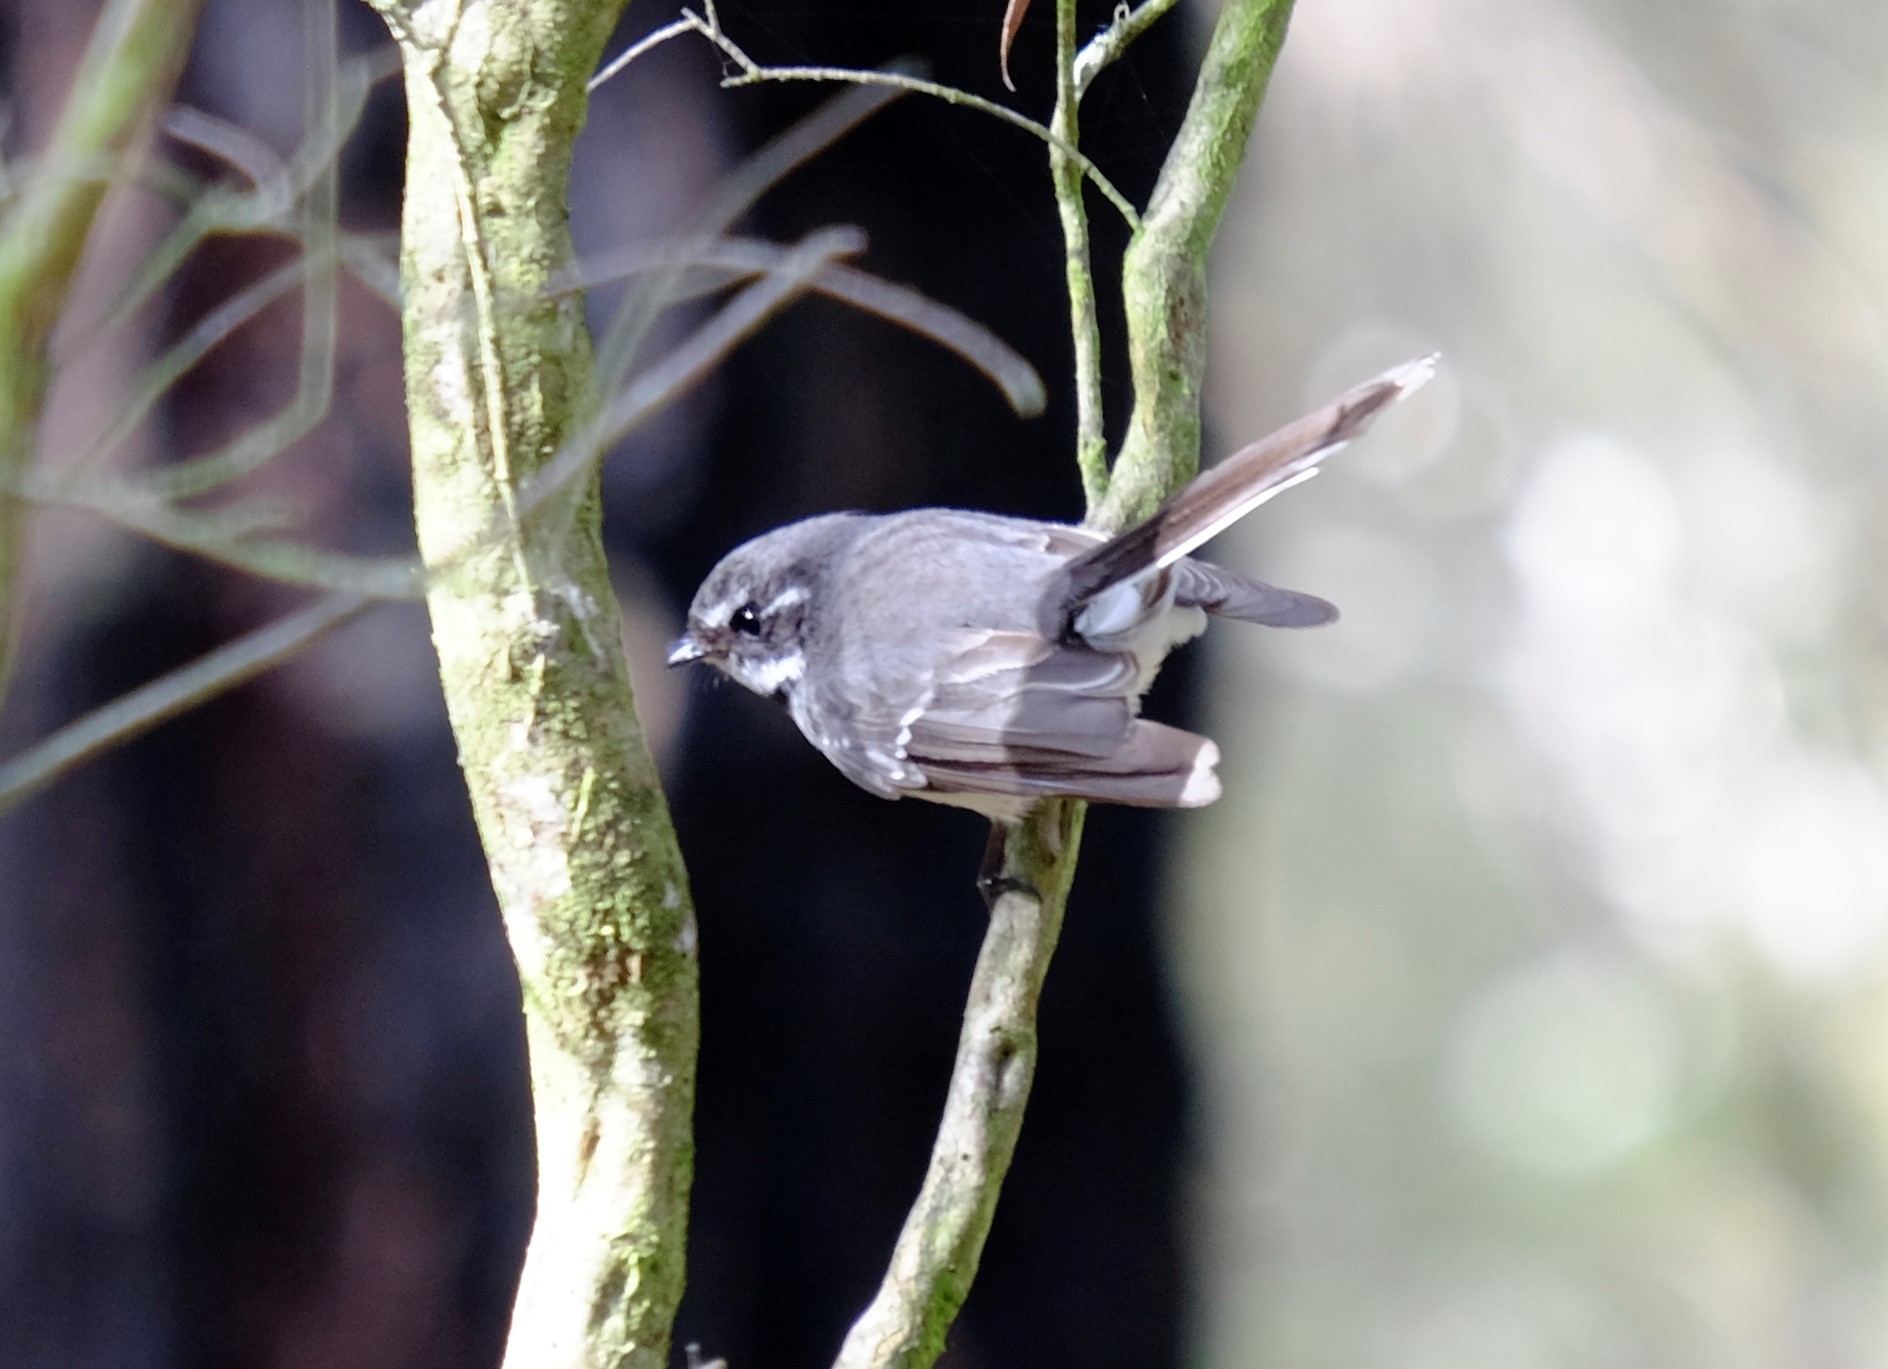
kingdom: Animalia
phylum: Chordata
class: Aves
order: Passeriformes
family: Rhipiduridae
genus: Rhipidura
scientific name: Rhipidura albiscapa
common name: Grey fantail
